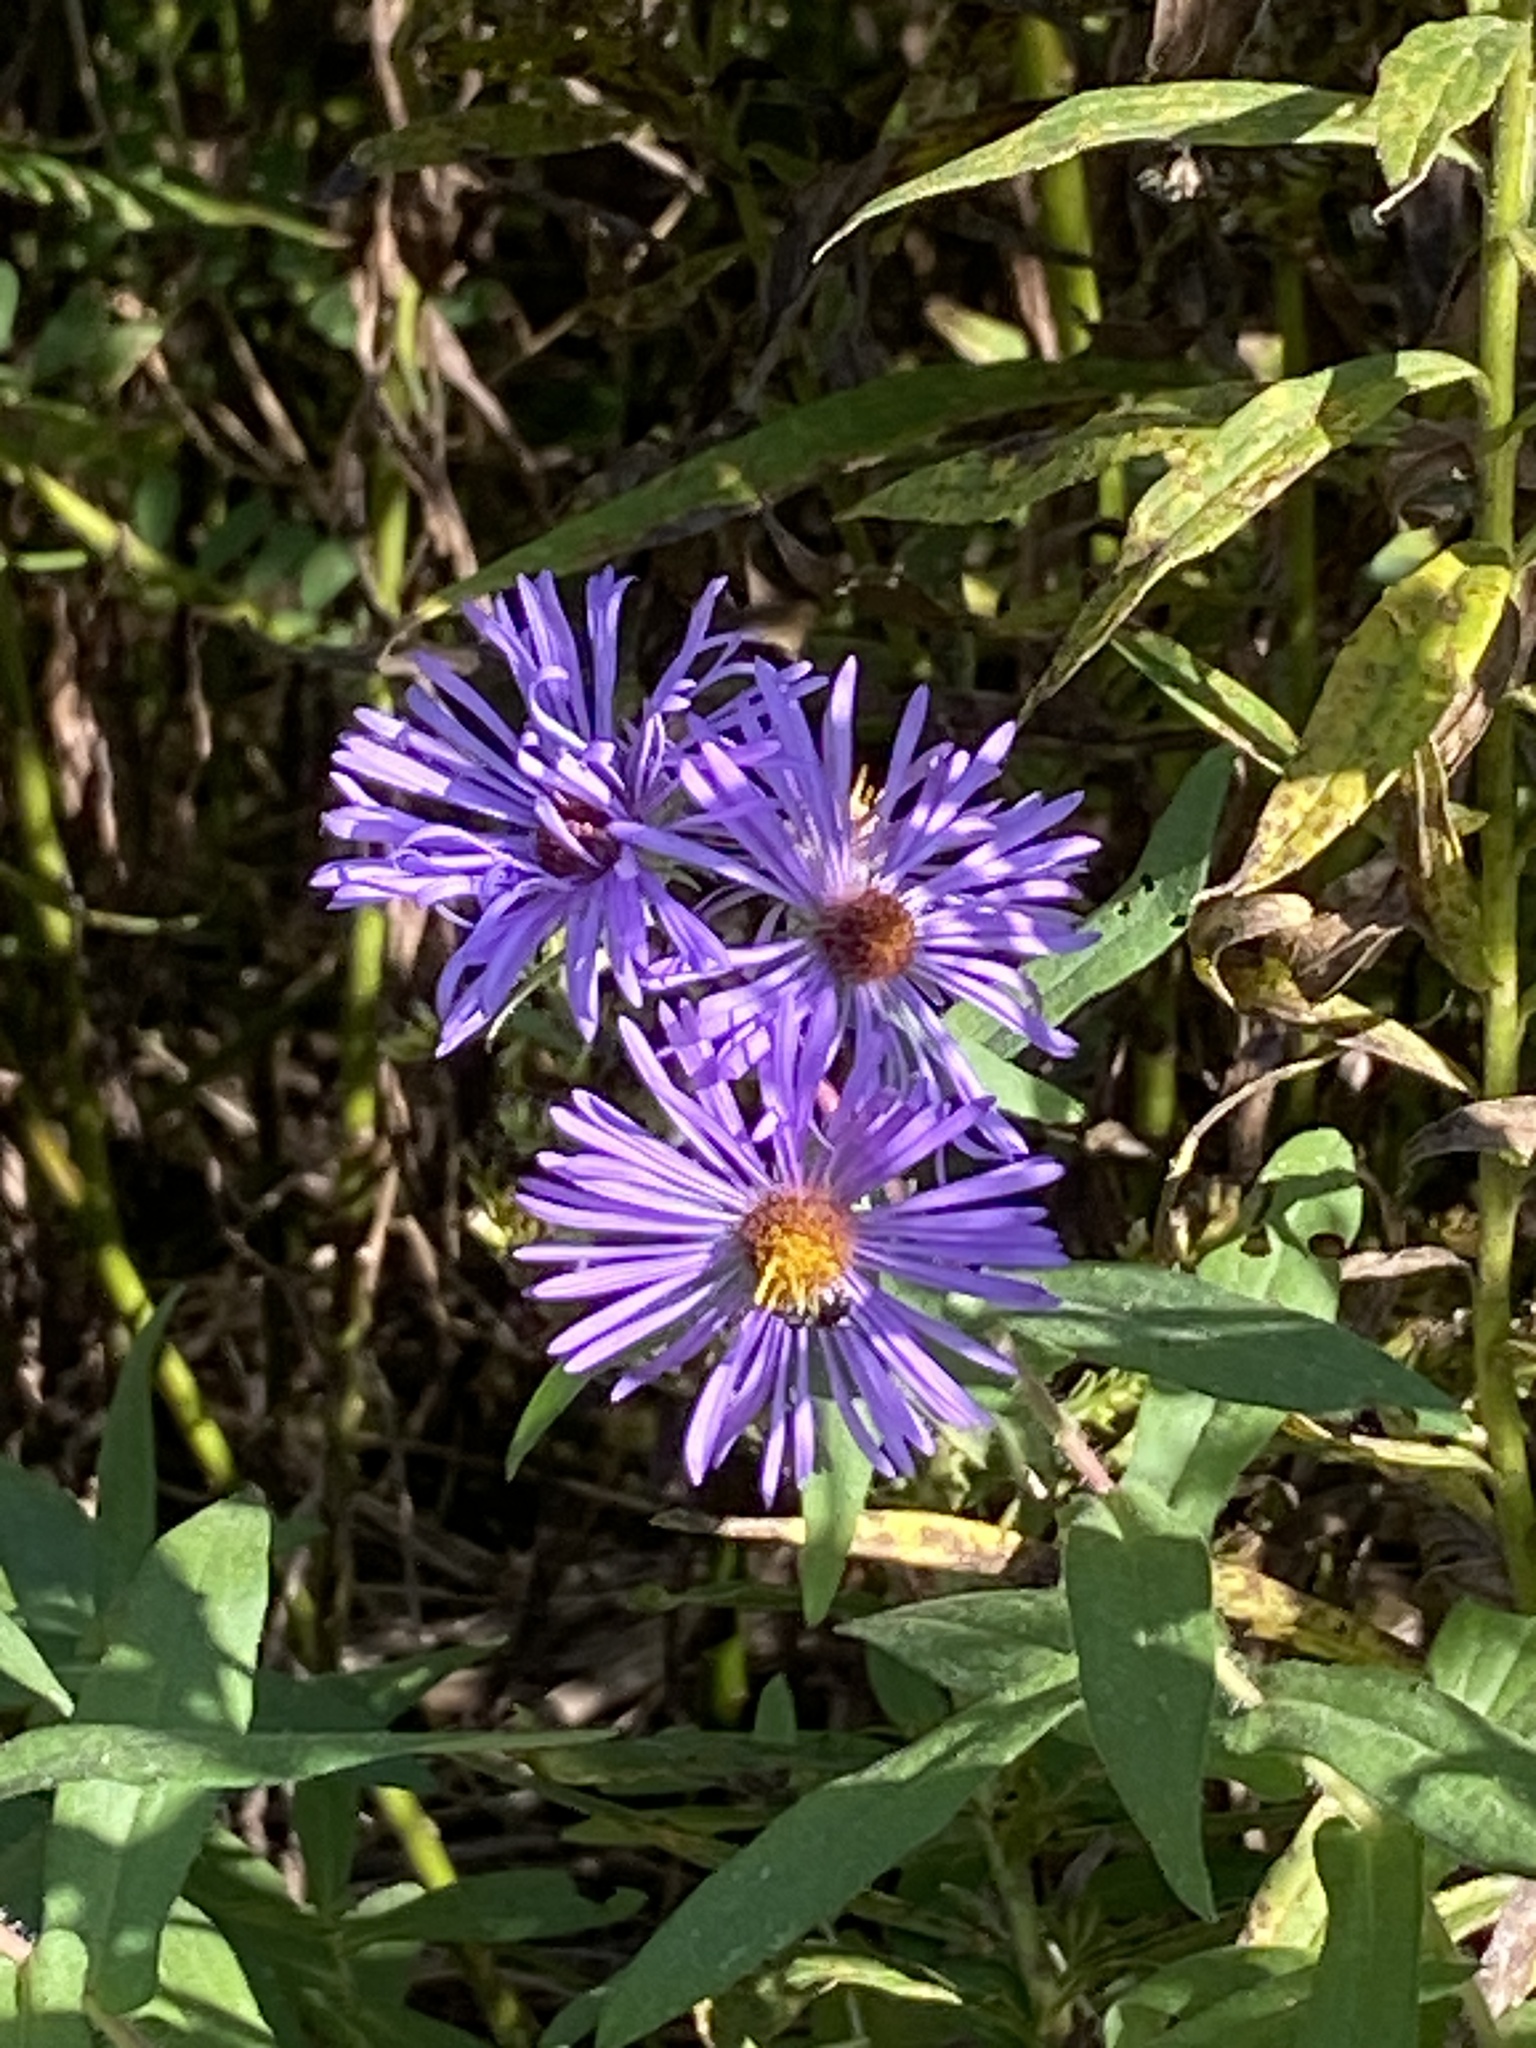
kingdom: Plantae
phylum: Tracheophyta
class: Magnoliopsida
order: Asterales
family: Asteraceae
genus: Symphyotrichum
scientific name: Symphyotrichum novae-angliae
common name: Michaelmas daisy
